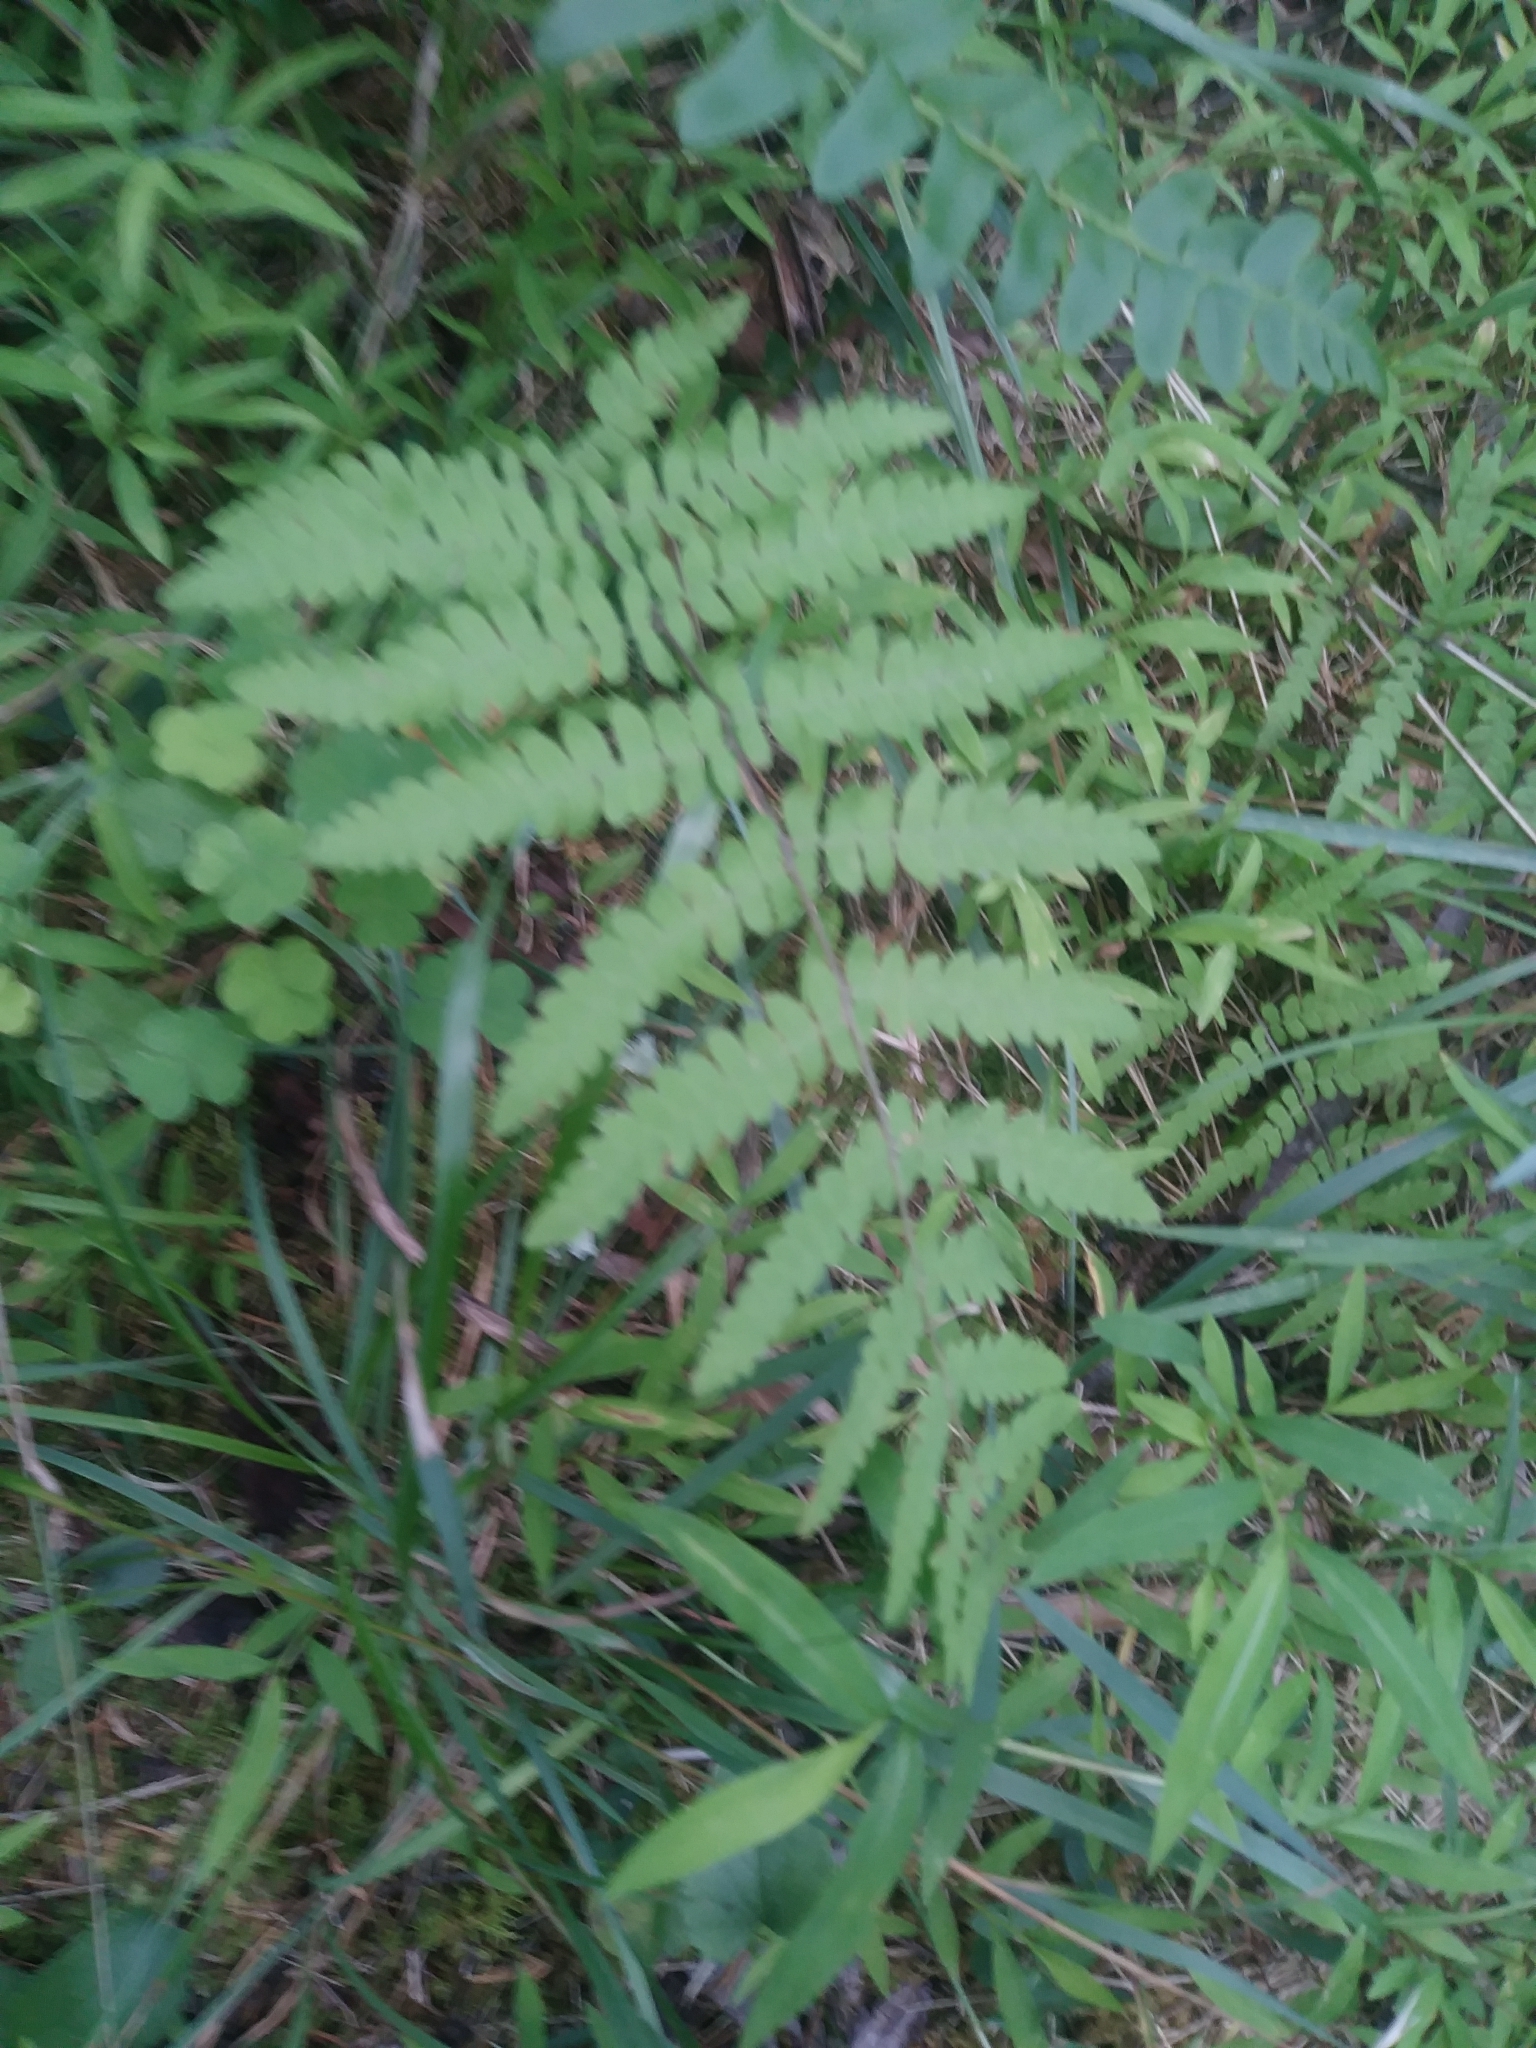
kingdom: Plantae
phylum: Tracheophyta
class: Polypodiopsida
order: Polypodiales
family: Thelypteridaceae
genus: Thelypteris
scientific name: Thelypteris palustris
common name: Marsh fern
